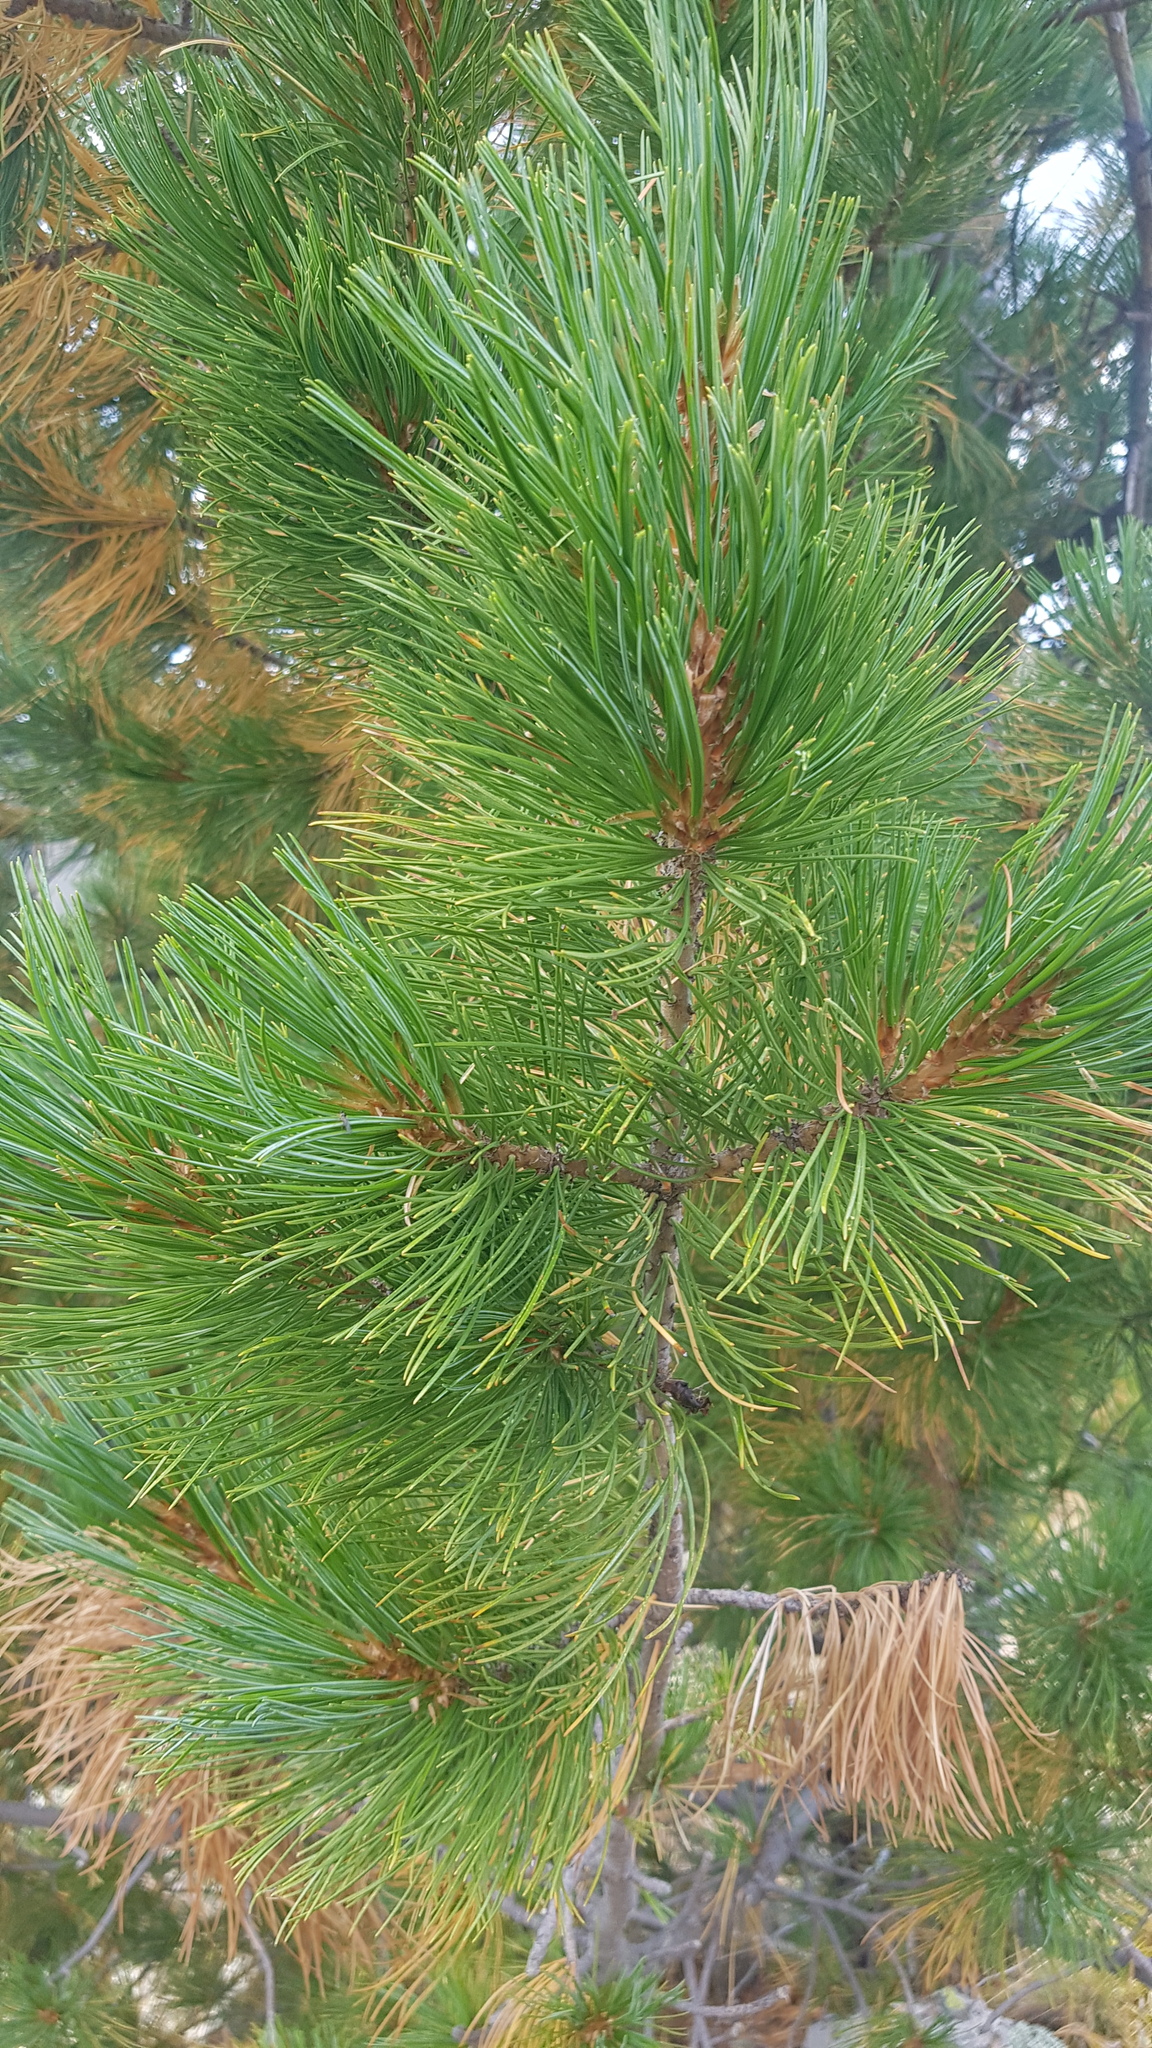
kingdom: Plantae
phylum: Tracheophyta
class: Pinopsida
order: Pinales
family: Pinaceae
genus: Pinus
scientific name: Pinus sibirica
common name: Siberian pine
